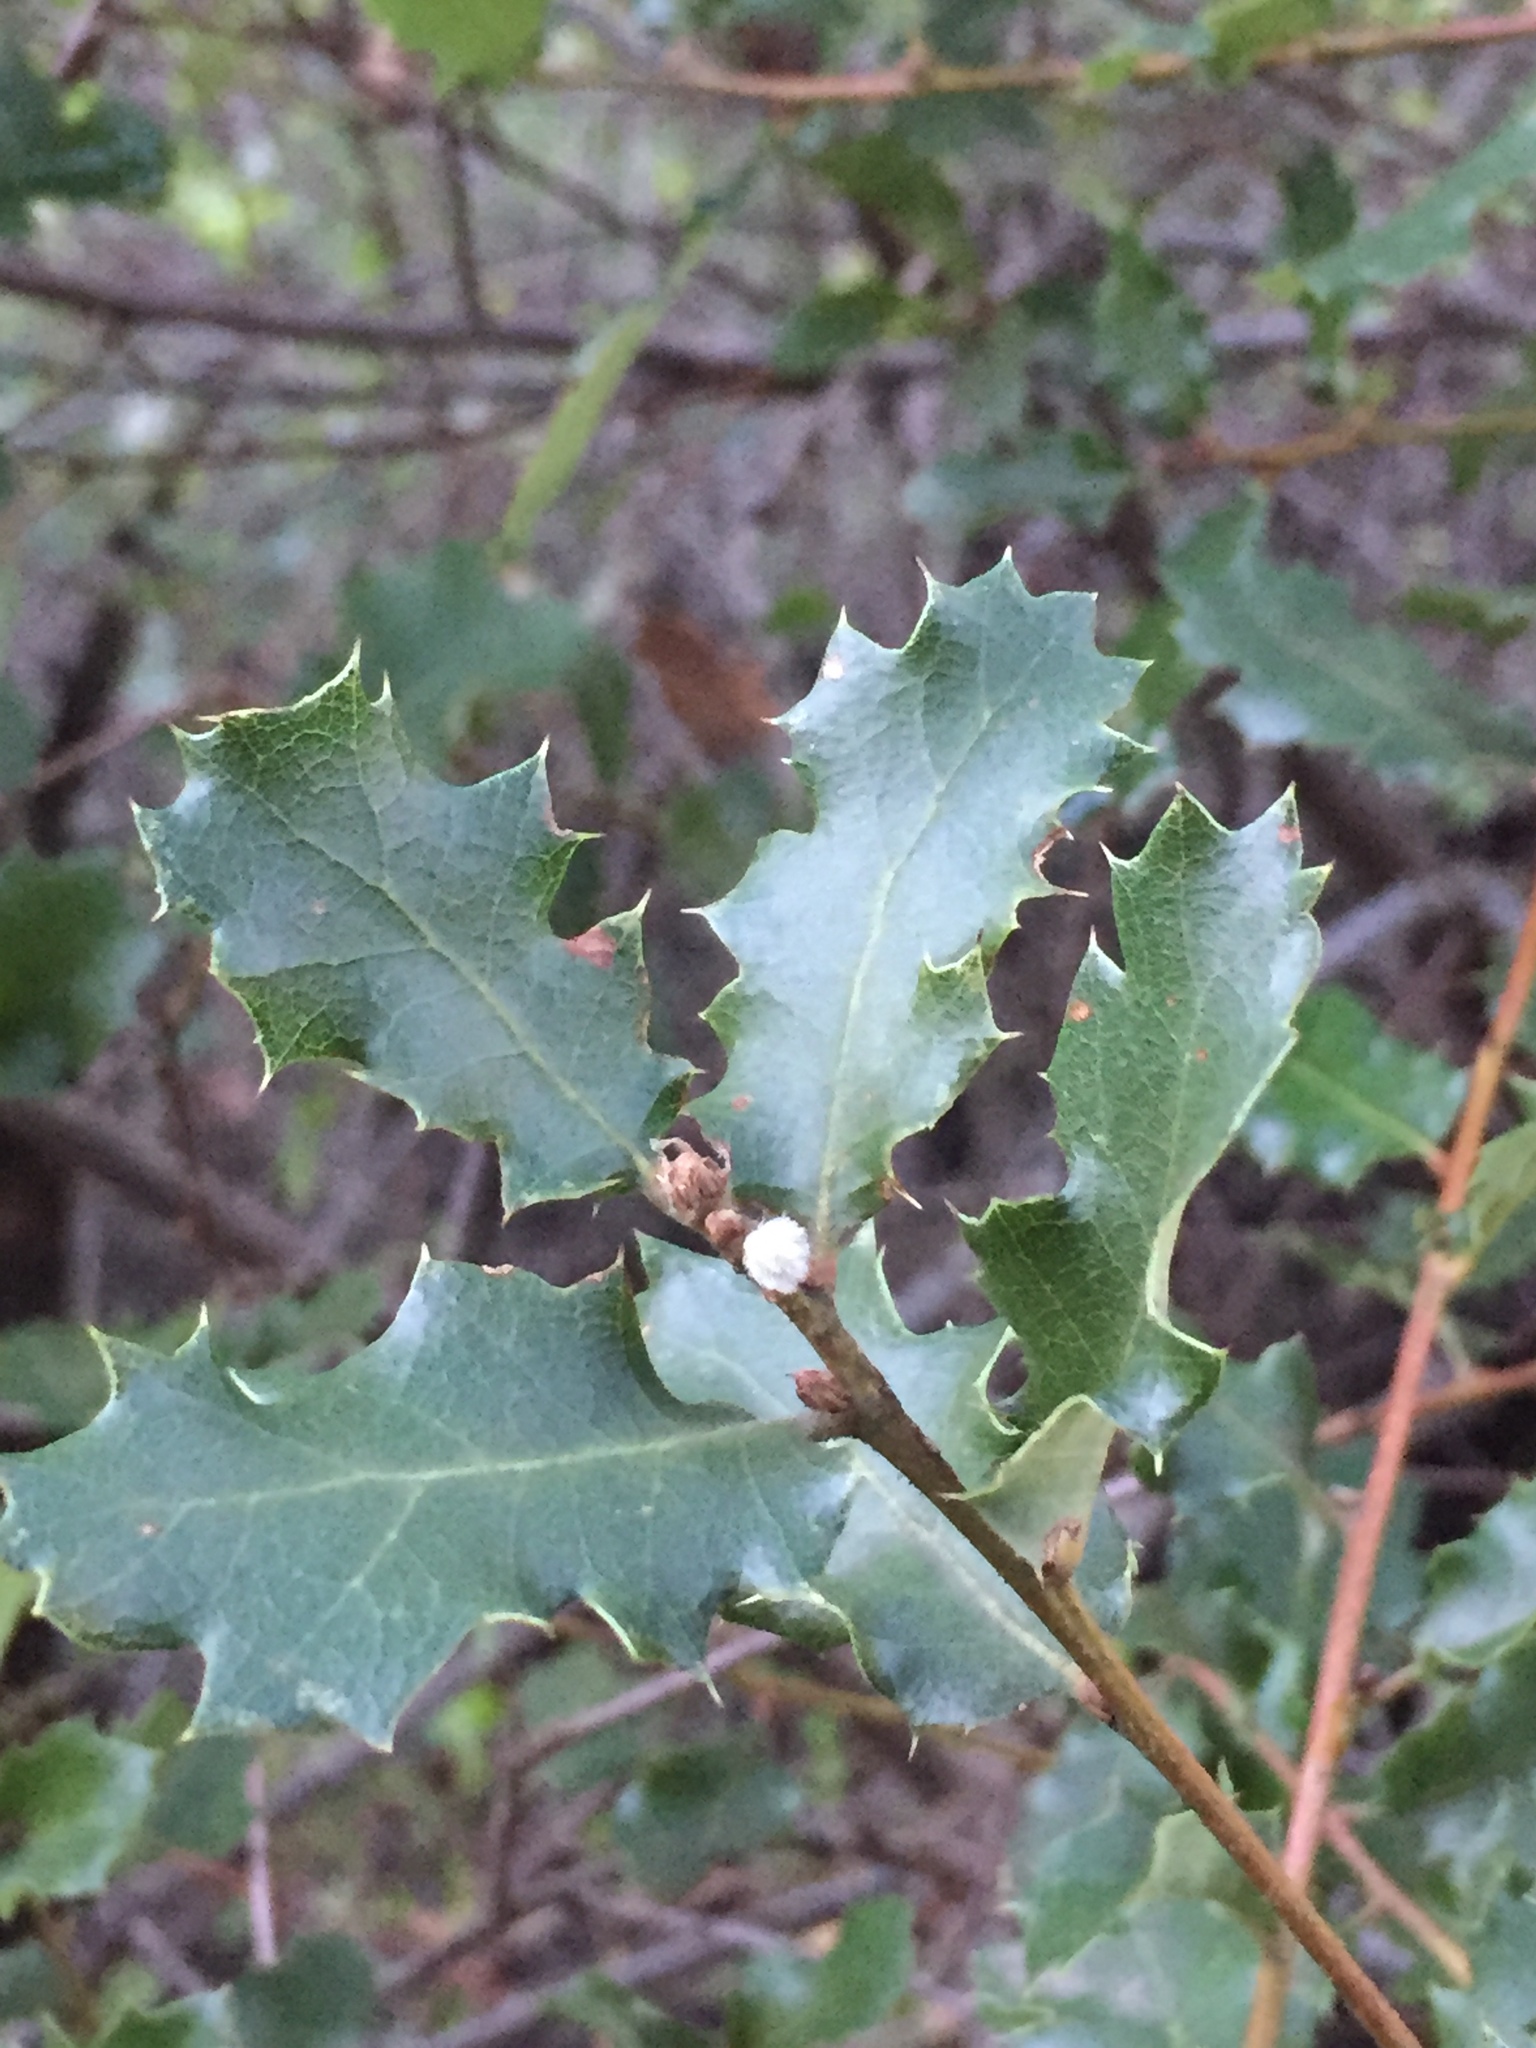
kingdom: Plantae
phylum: Tracheophyta
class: Magnoliopsida
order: Fagales
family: Fagaceae
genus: Quercus
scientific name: Quercus berberidifolia
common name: California scrub oak
